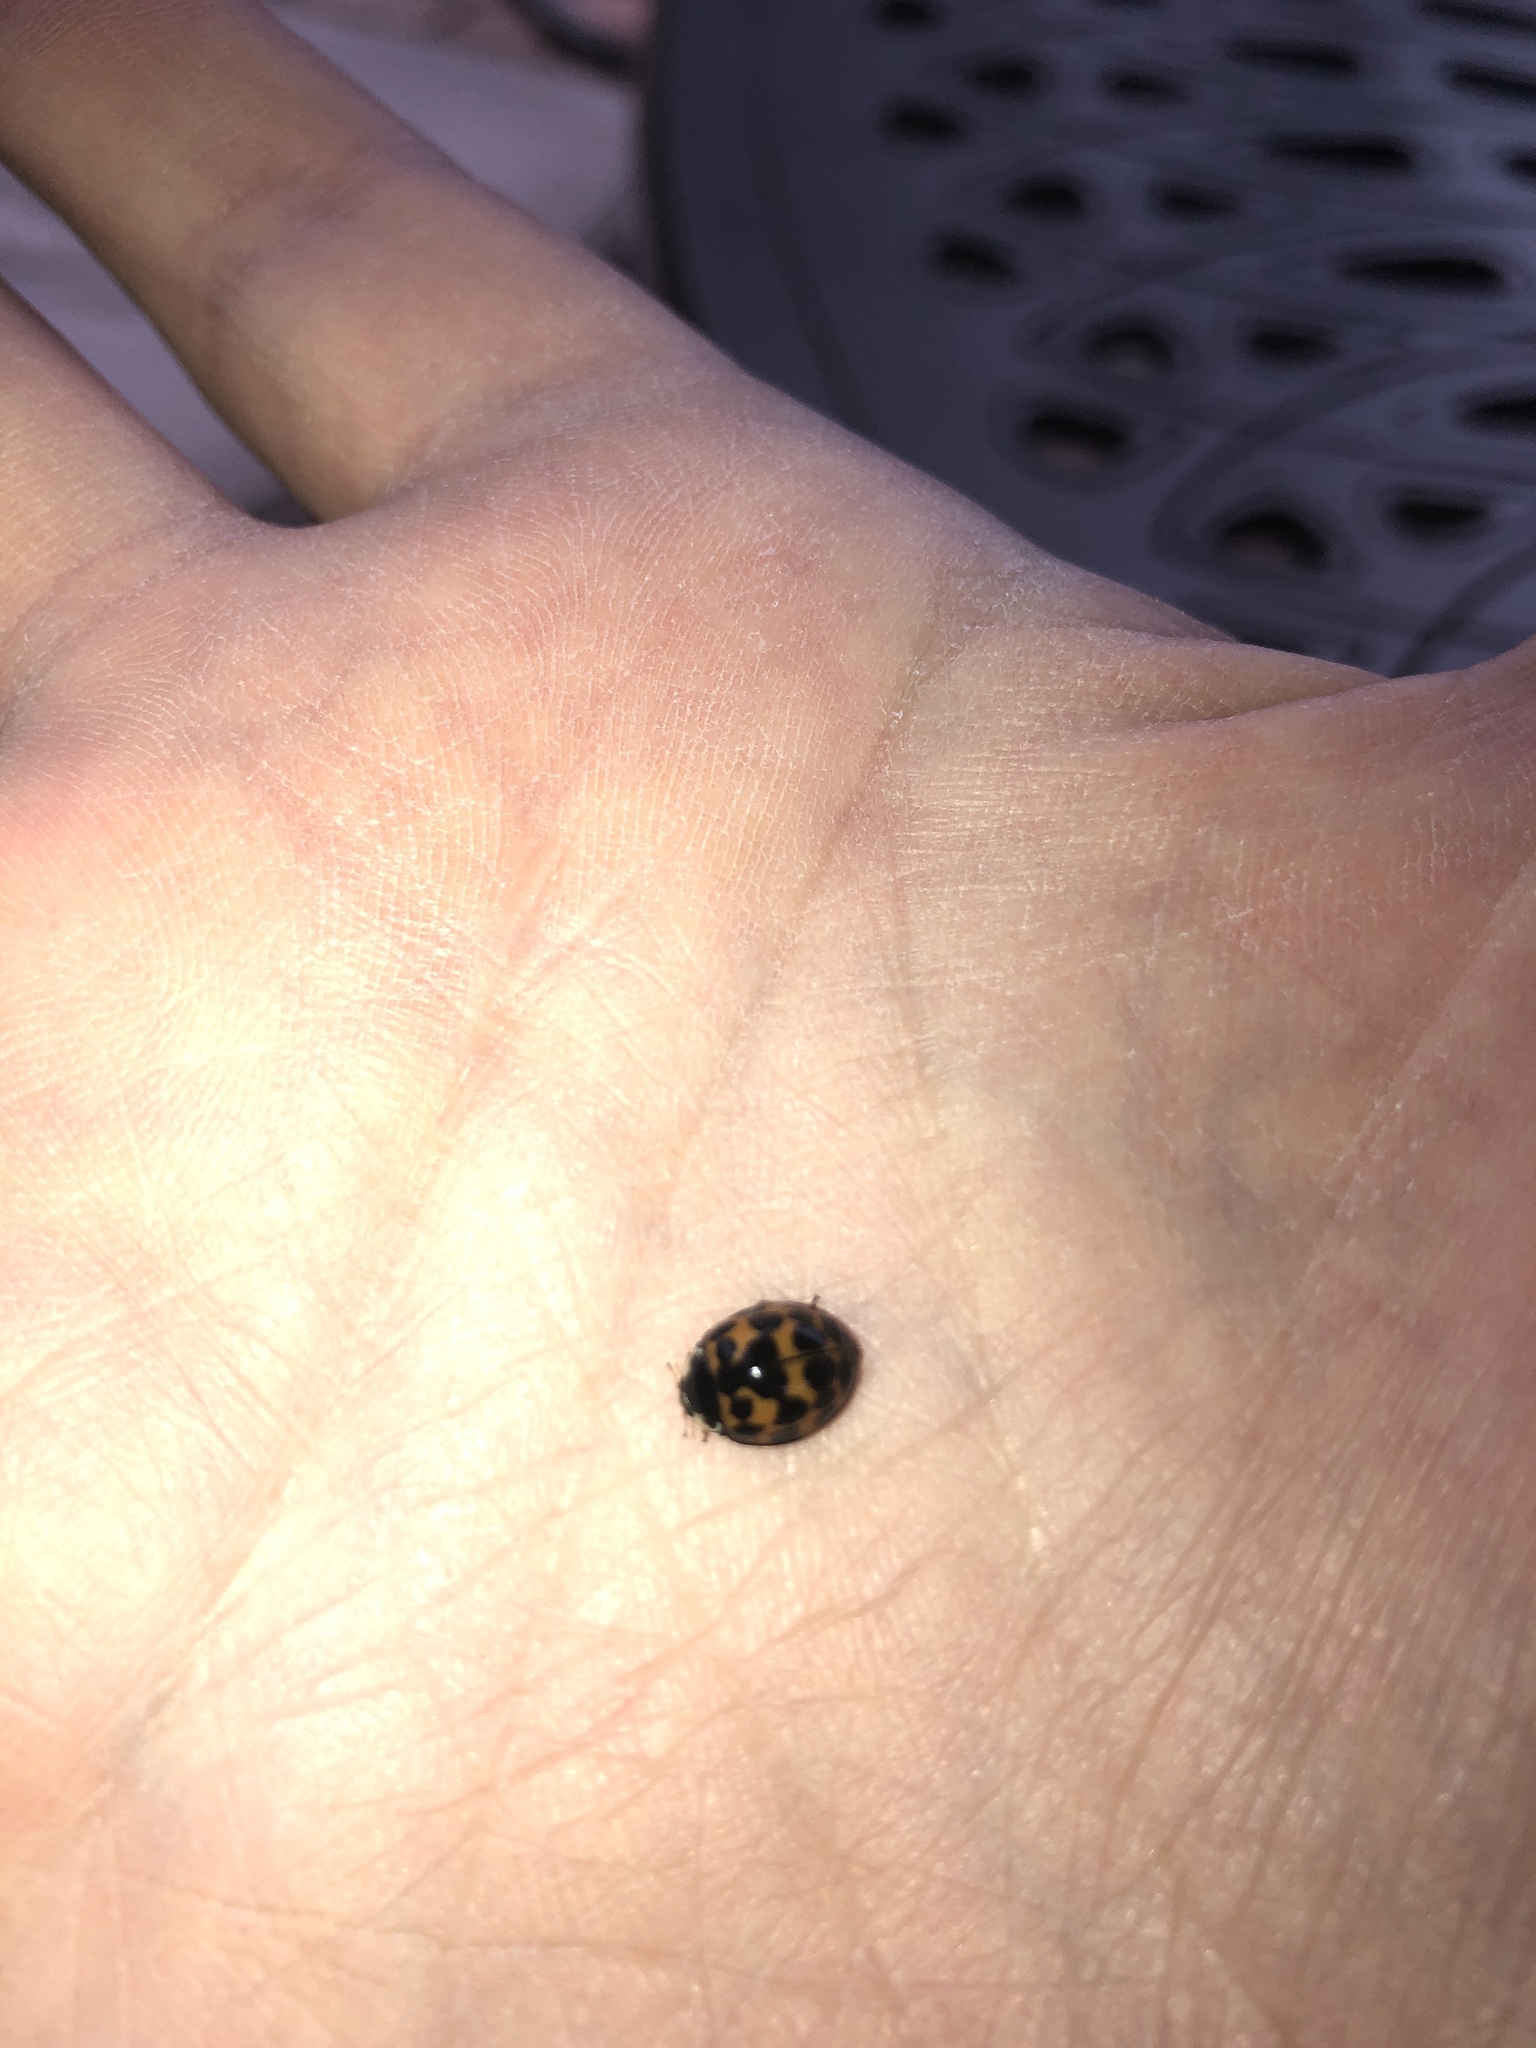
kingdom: Animalia
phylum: Arthropoda
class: Insecta
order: Coleoptera
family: Coccinellidae
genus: Harmonia
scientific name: Harmonia axyridis
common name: Harlequin ladybird
